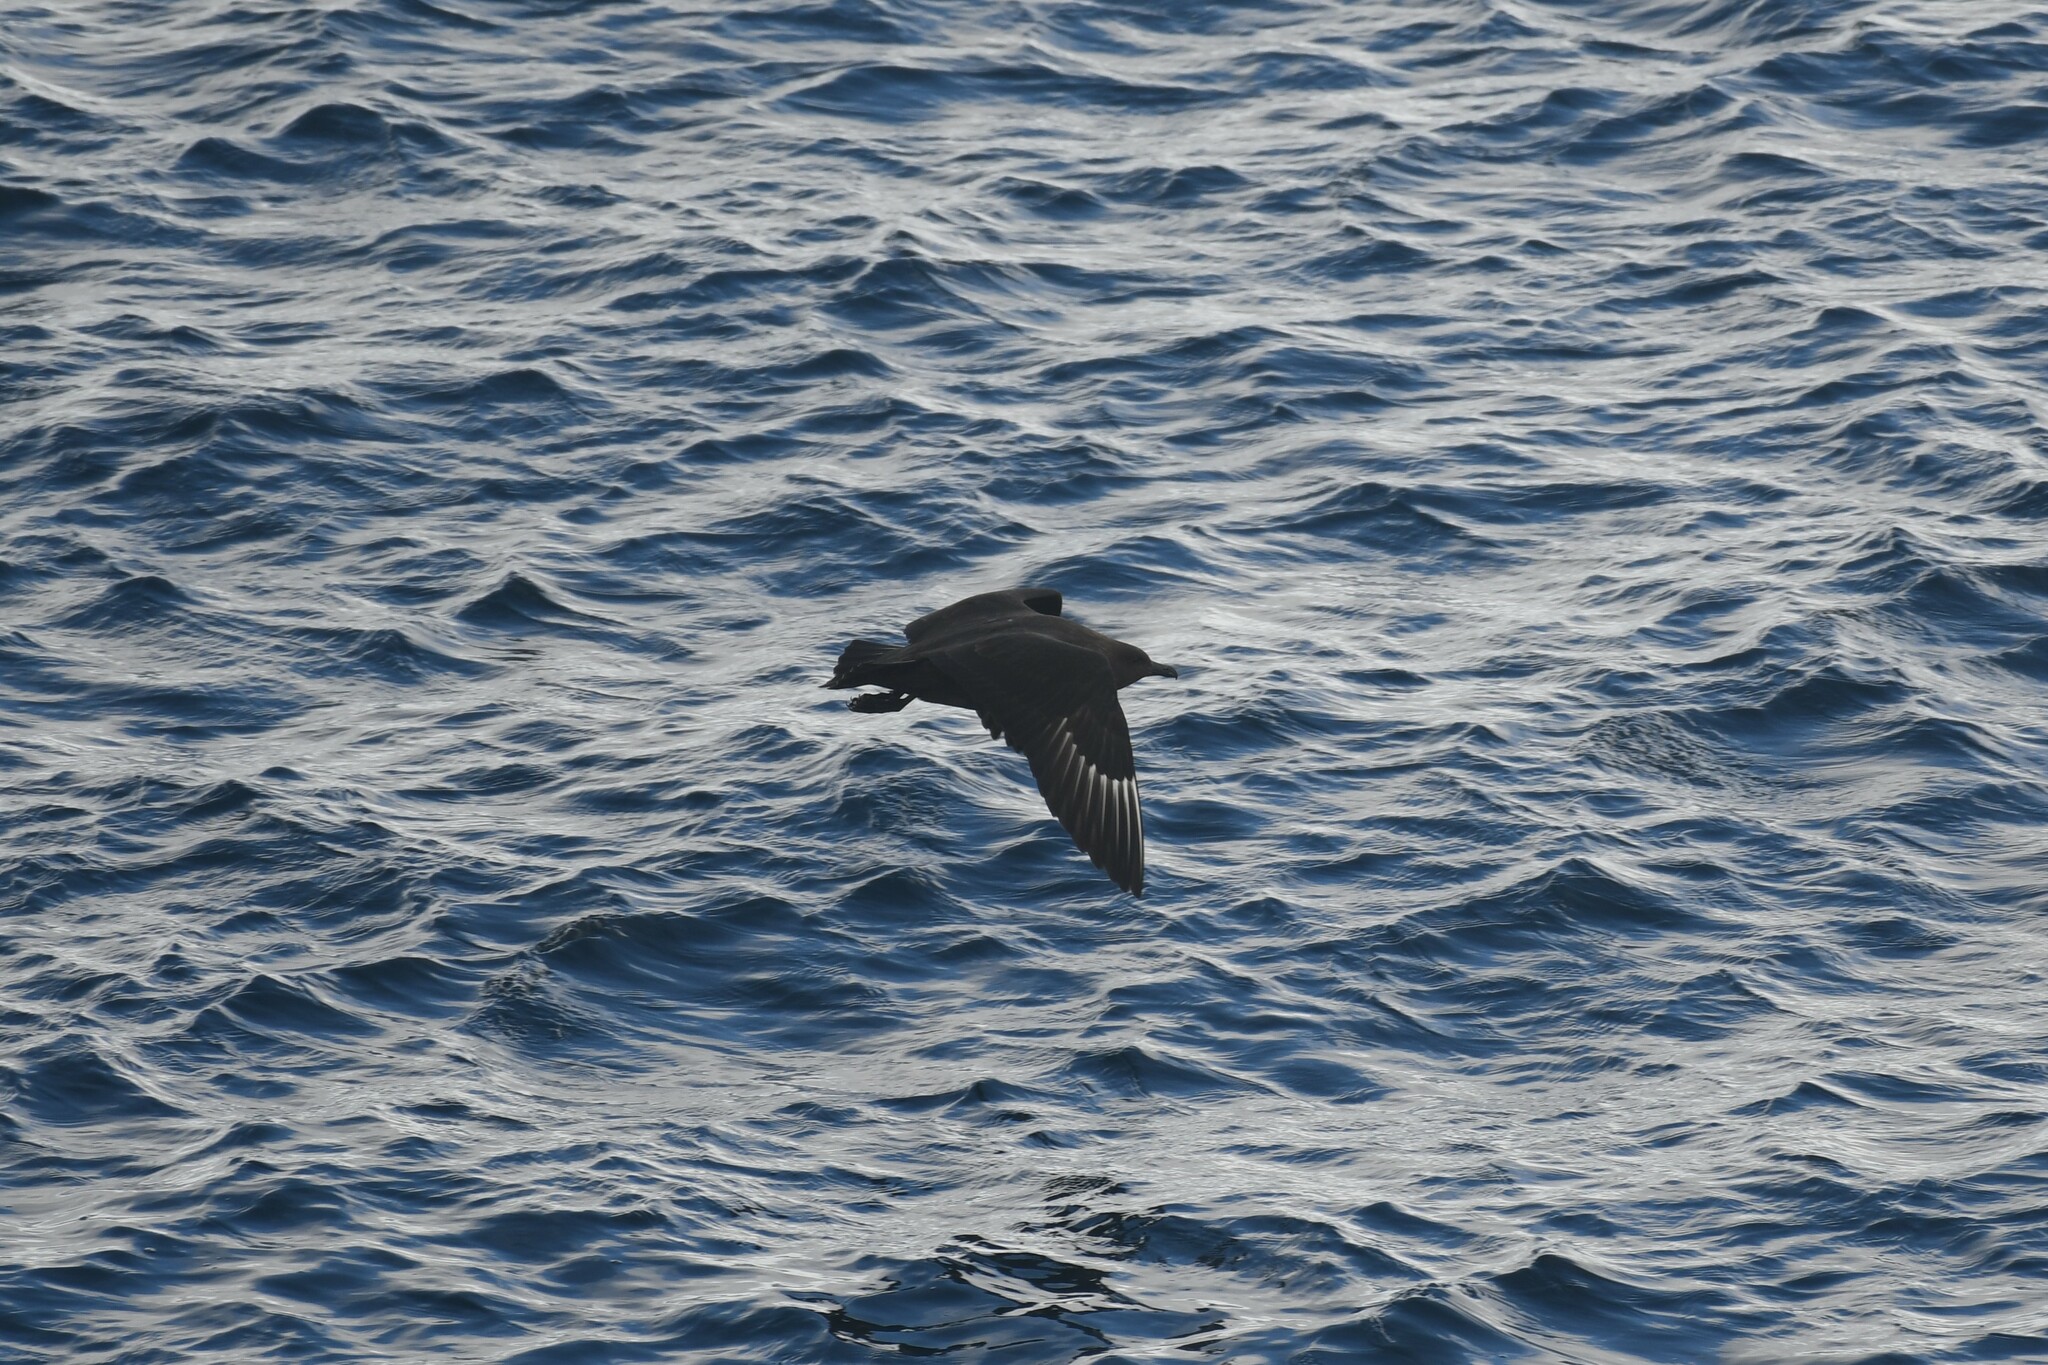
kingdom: Animalia
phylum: Chordata
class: Aves
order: Charadriiformes
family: Stercorariidae
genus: Stercorarius
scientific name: Stercorarius maccormicki
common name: South polar skua
